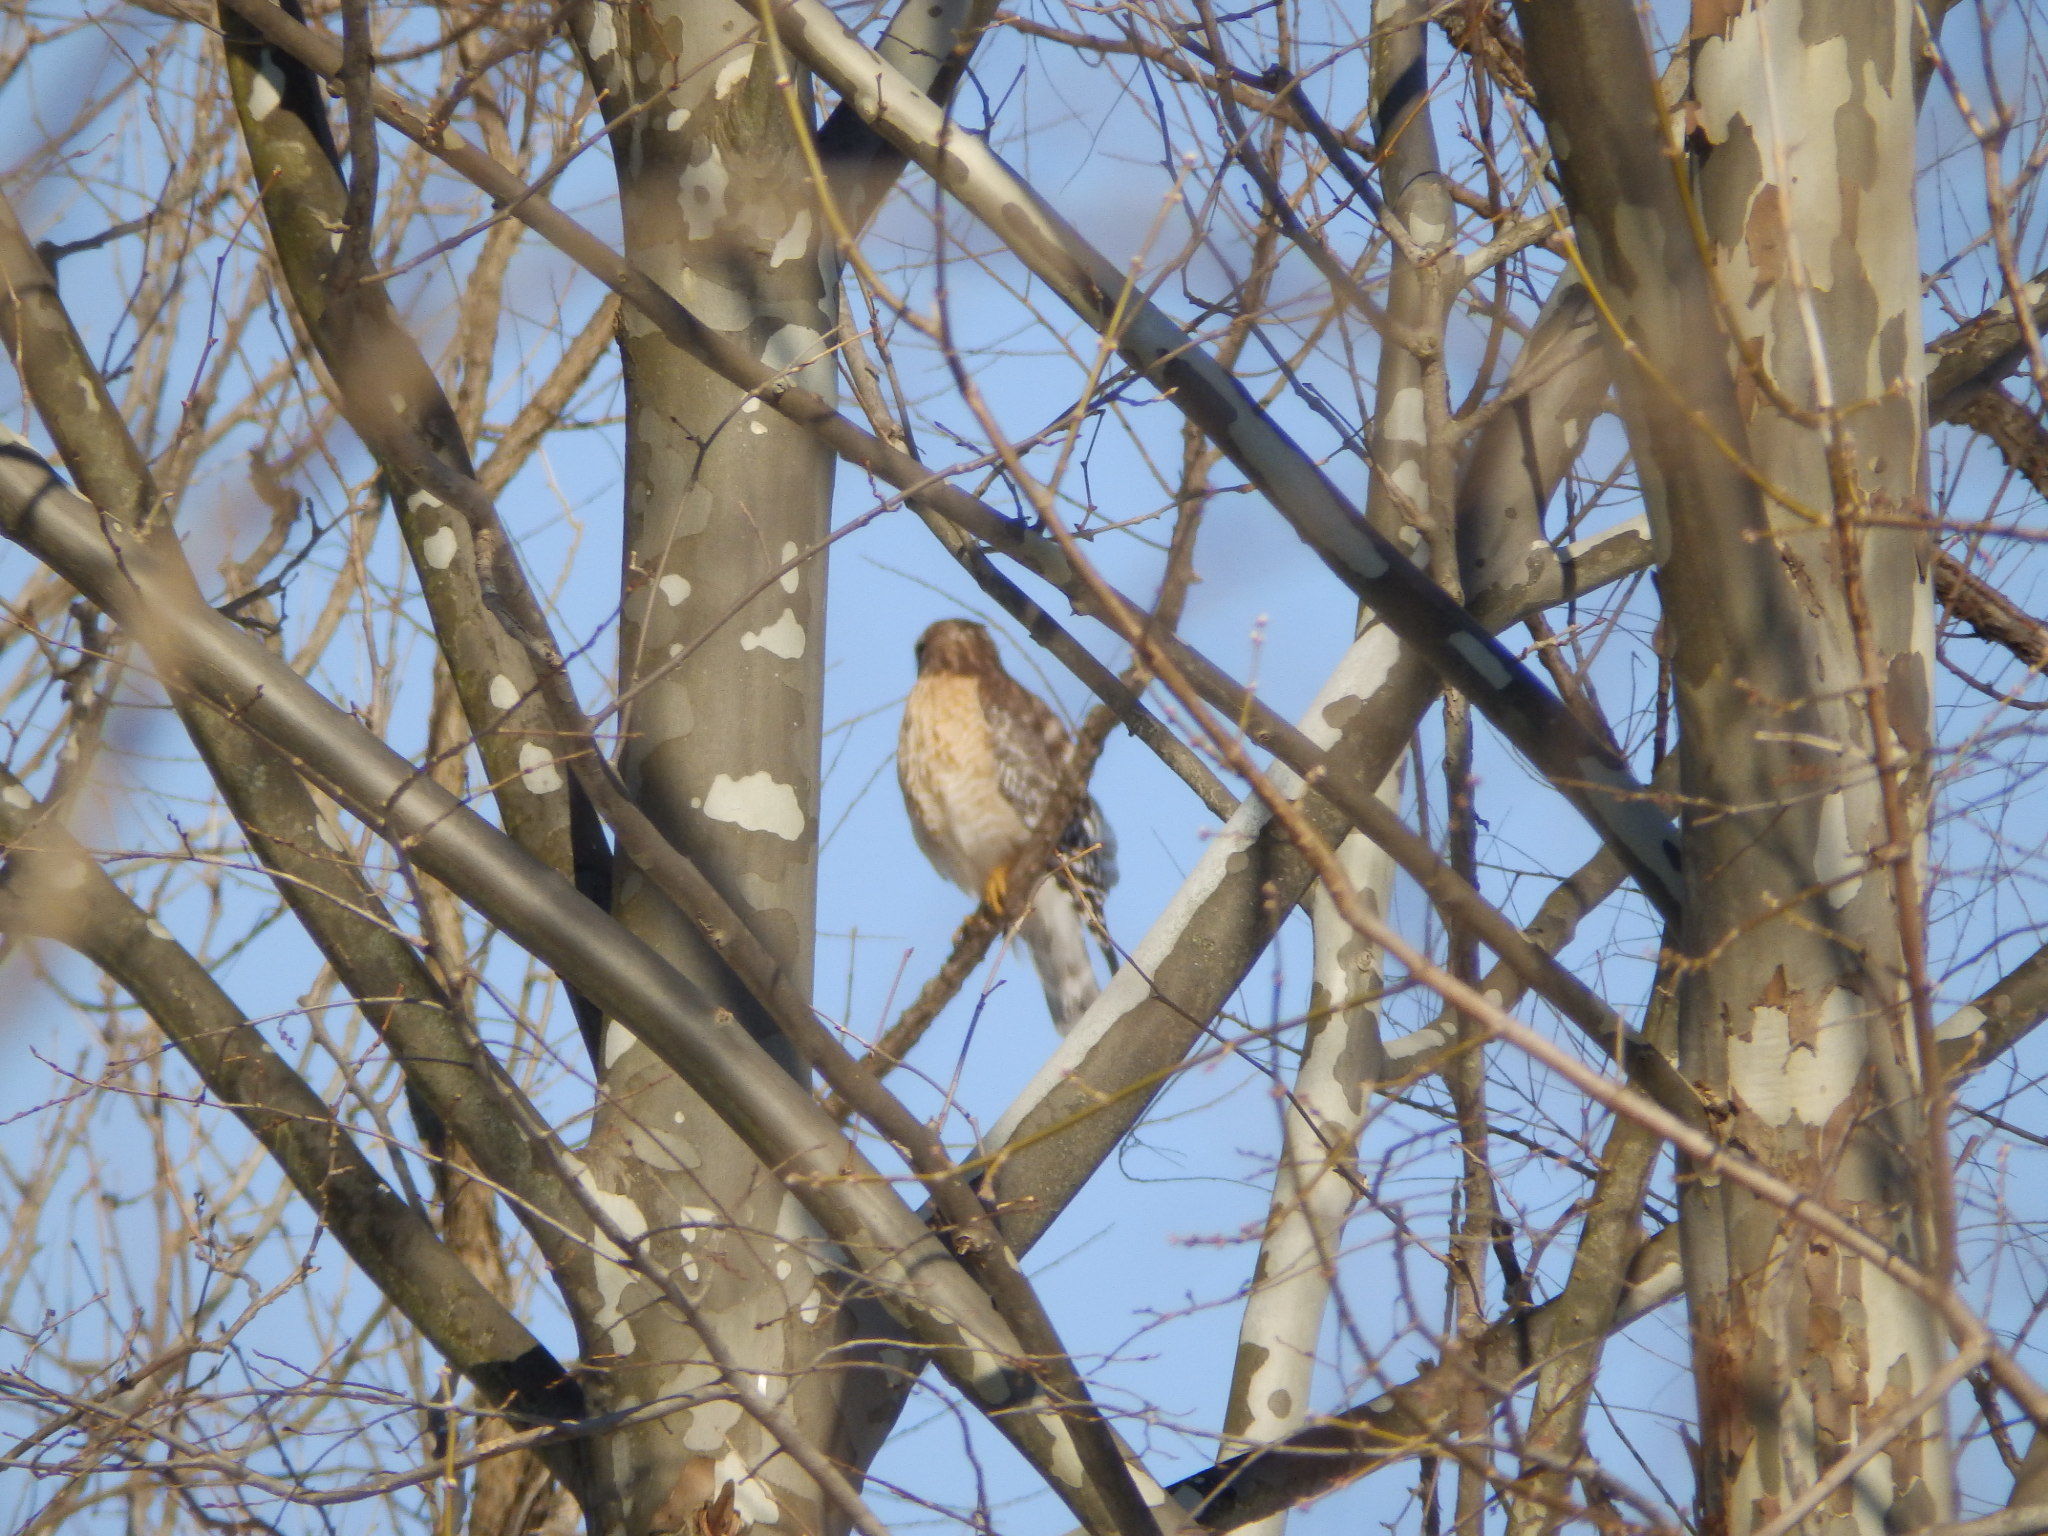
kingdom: Animalia
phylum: Chordata
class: Aves
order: Accipitriformes
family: Accipitridae
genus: Buteo
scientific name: Buteo lineatus
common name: Red-shouldered hawk
